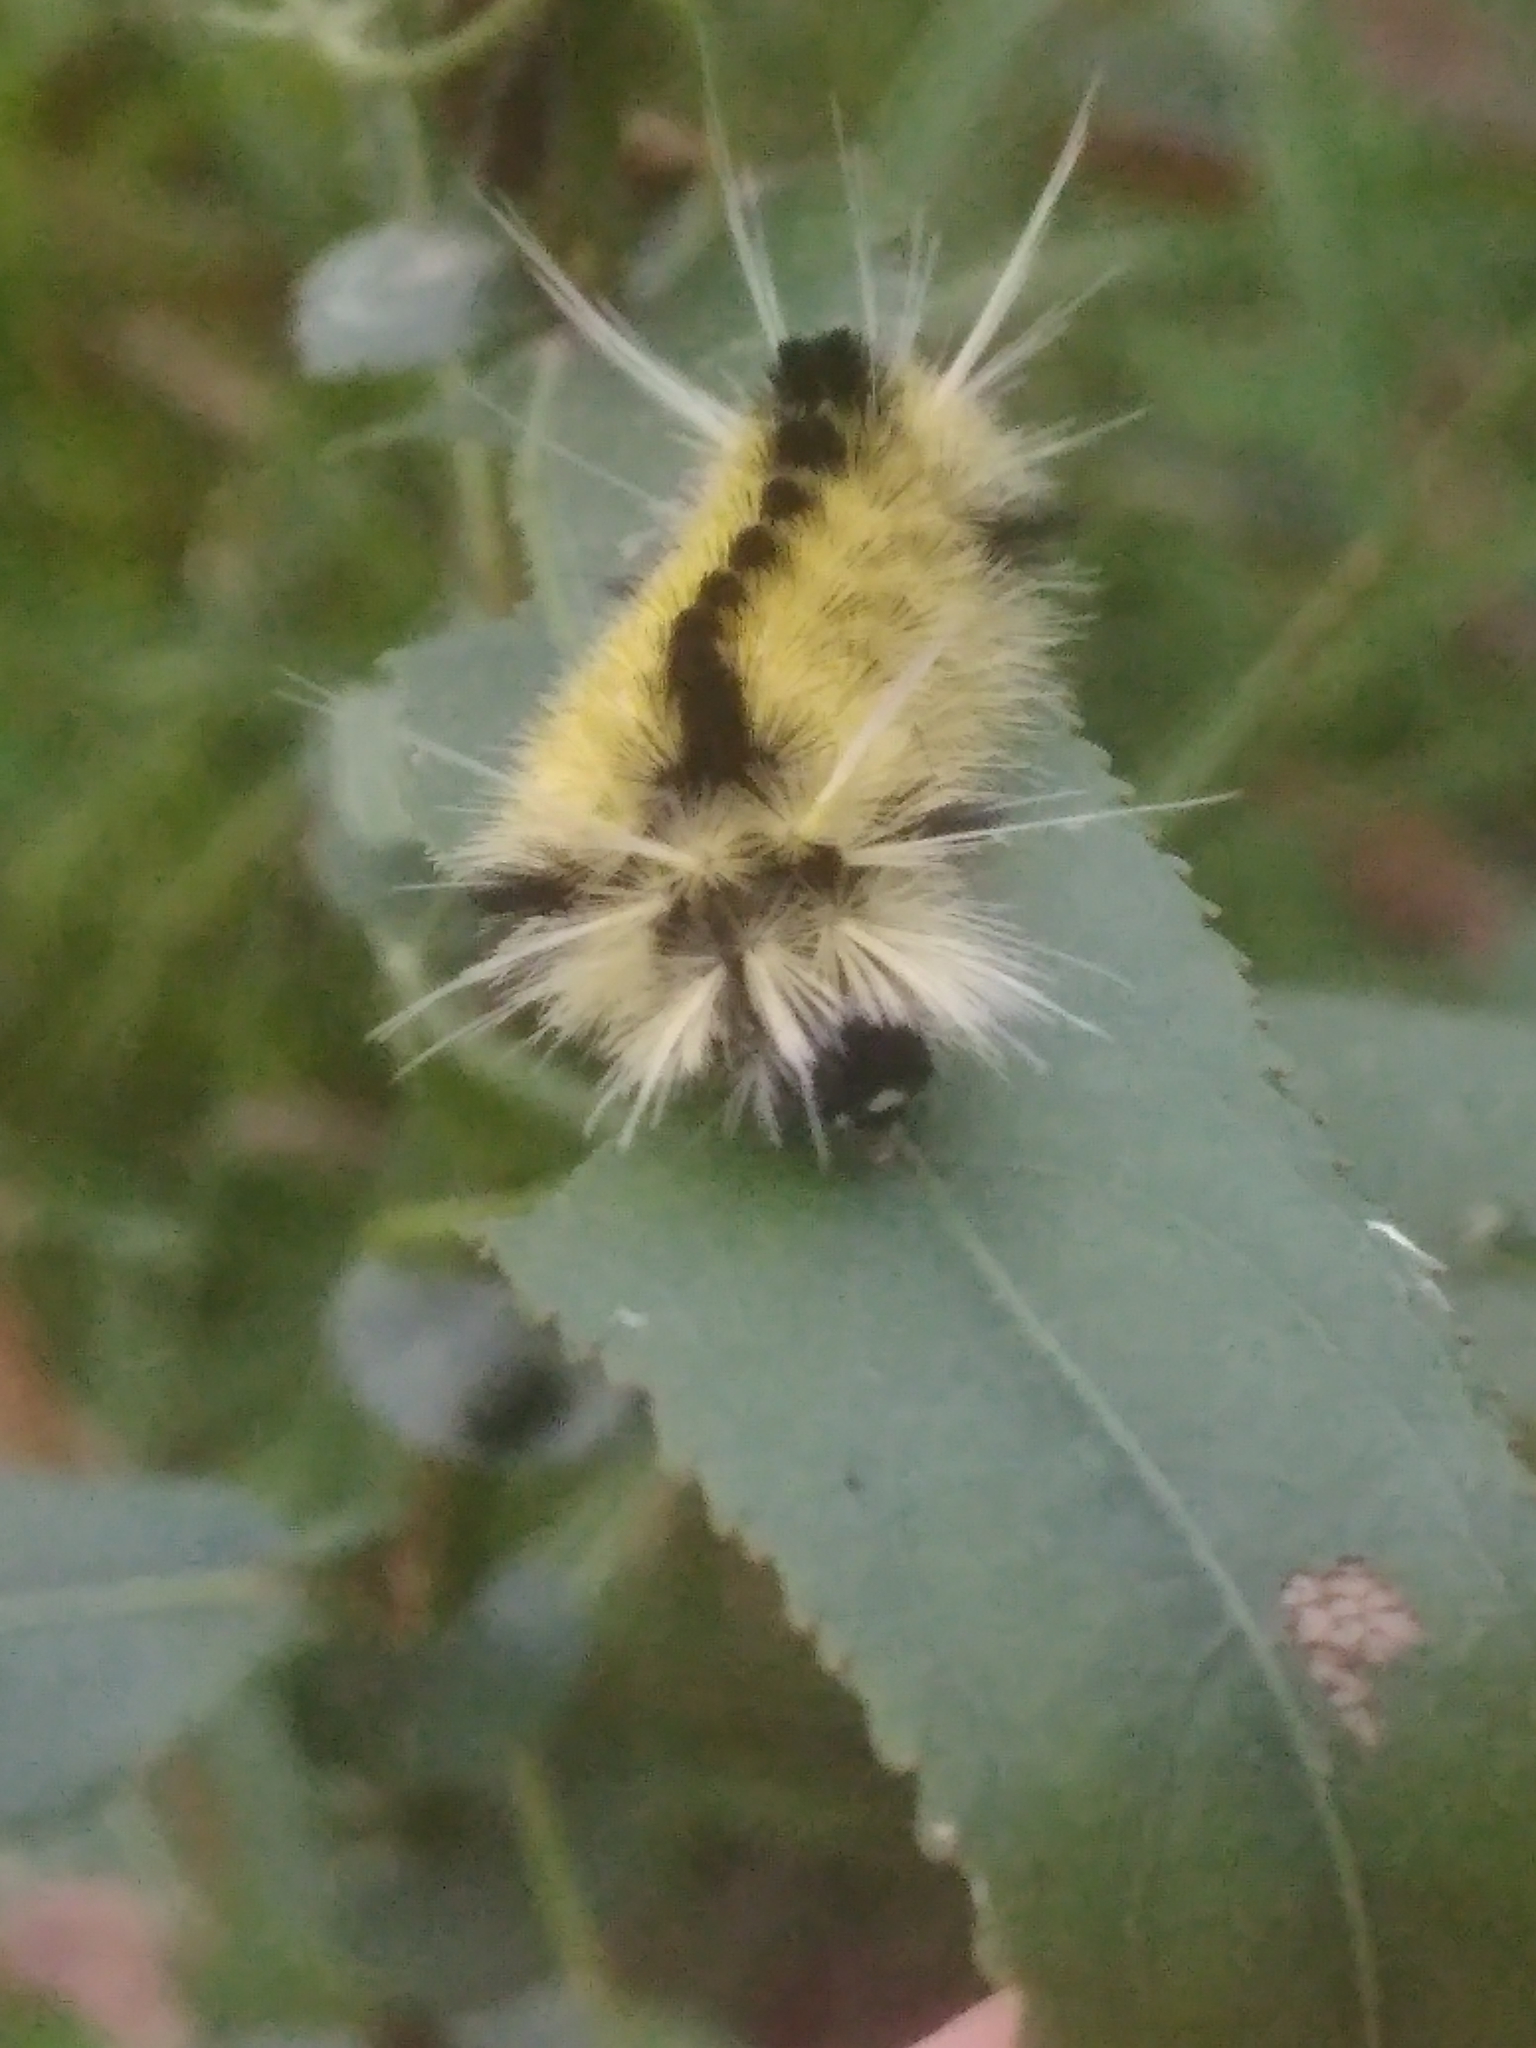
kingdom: Animalia
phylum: Arthropoda
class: Insecta
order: Lepidoptera
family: Erebidae
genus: Lophocampa
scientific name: Lophocampa maculata
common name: Spotted tussock moth
